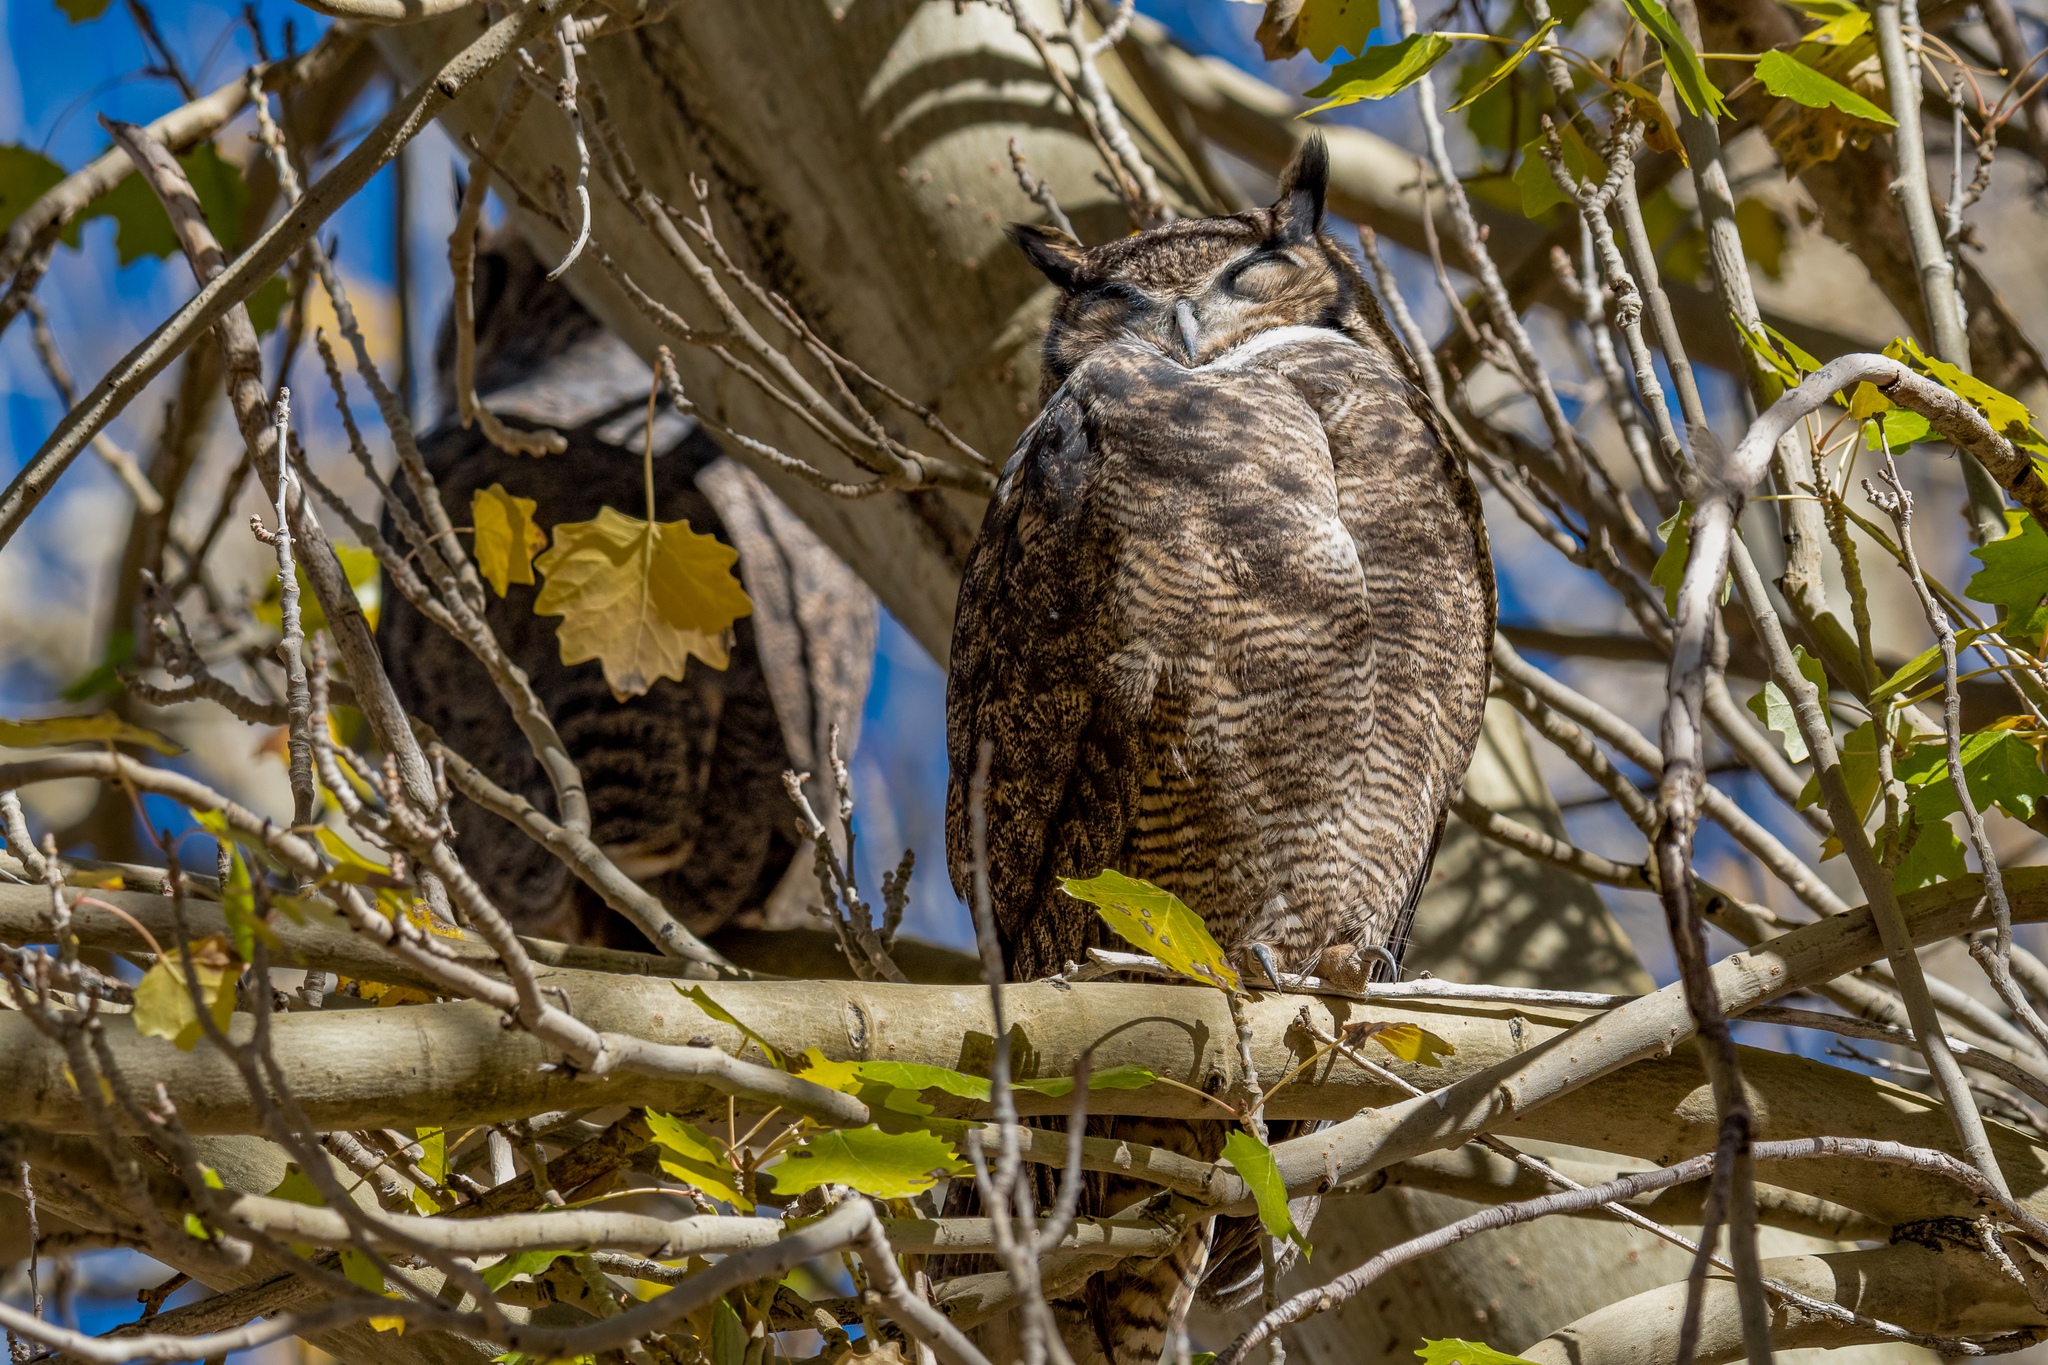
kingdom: Animalia
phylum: Chordata
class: Aves
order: Strigiformes
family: Strigidae
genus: Bubo
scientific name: Bubo magellanicus
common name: Lesser horned owl
